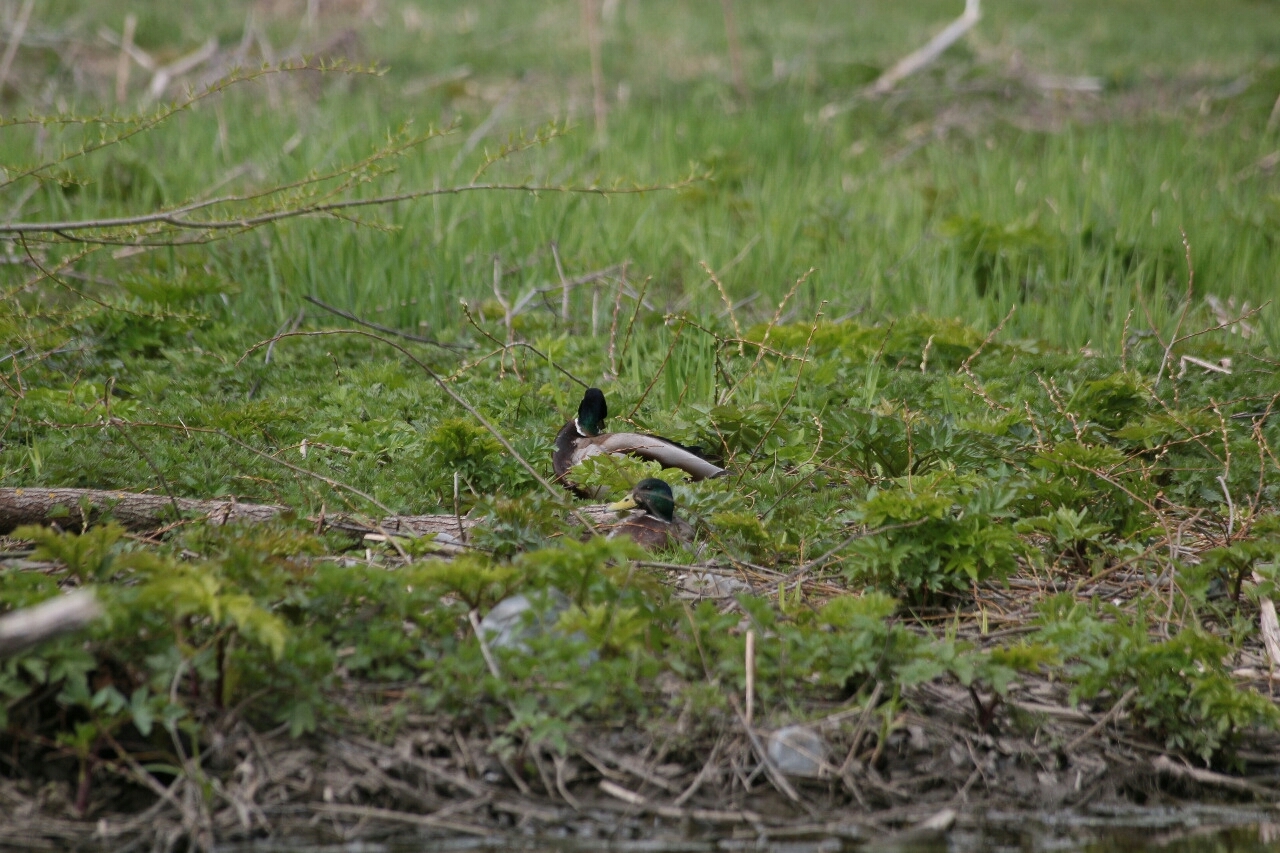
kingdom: Animalia
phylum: Chordata
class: Aves
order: Anseriformes
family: Anatidae
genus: Anas
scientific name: Anas platyrhynchos
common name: Mallard
